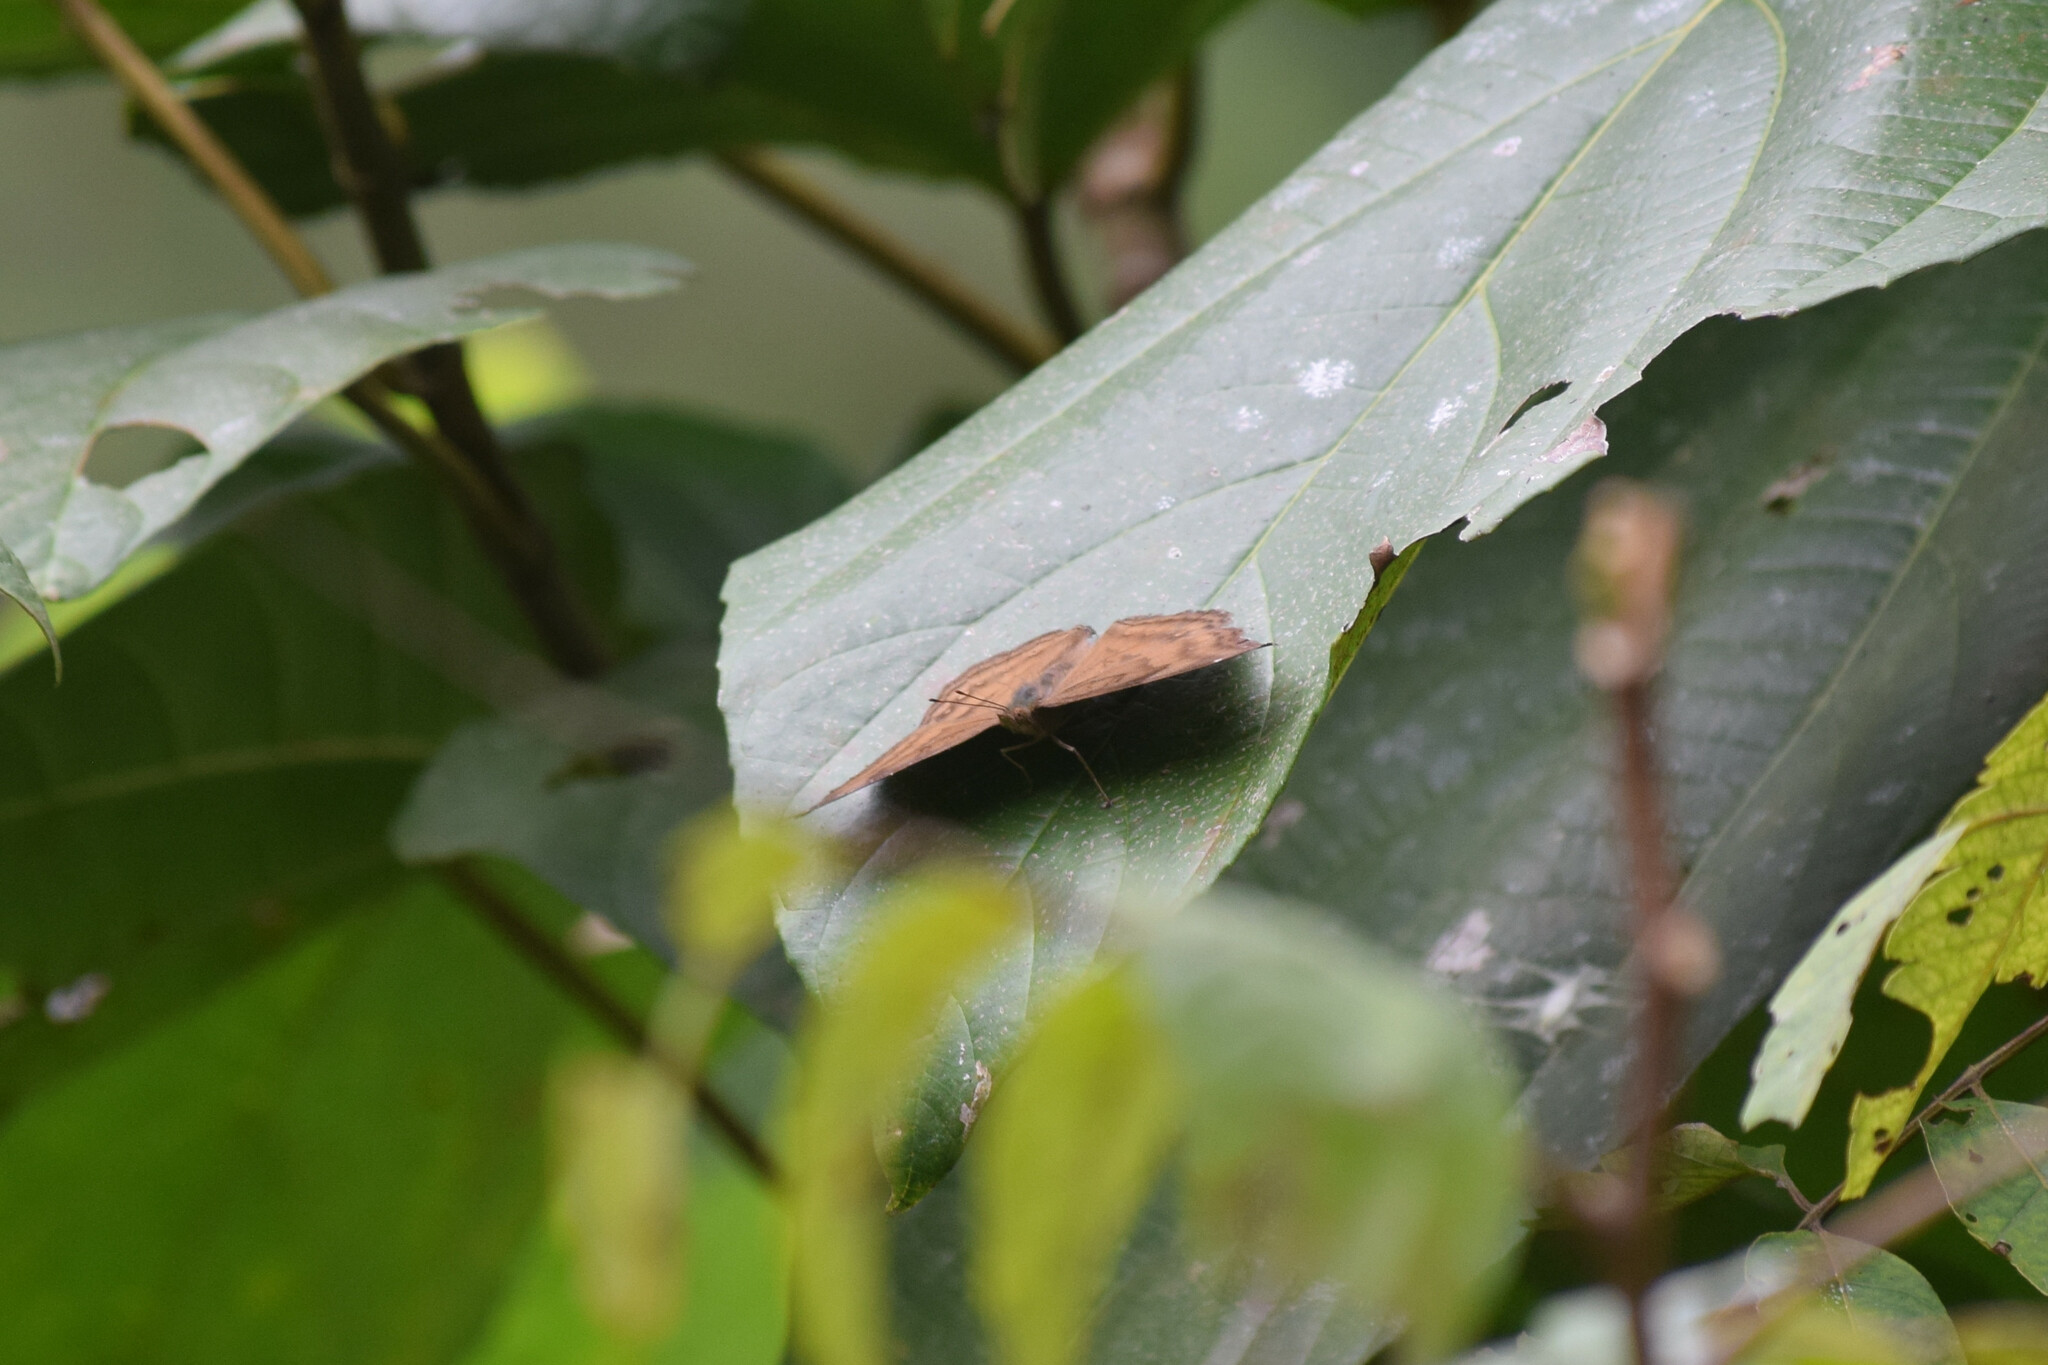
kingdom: Animalia
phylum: Arthropoda
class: Insecta
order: Lepidoptera
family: Nymphalidae
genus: Junonia
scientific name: Junonia iphita
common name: Chocolate pansy
